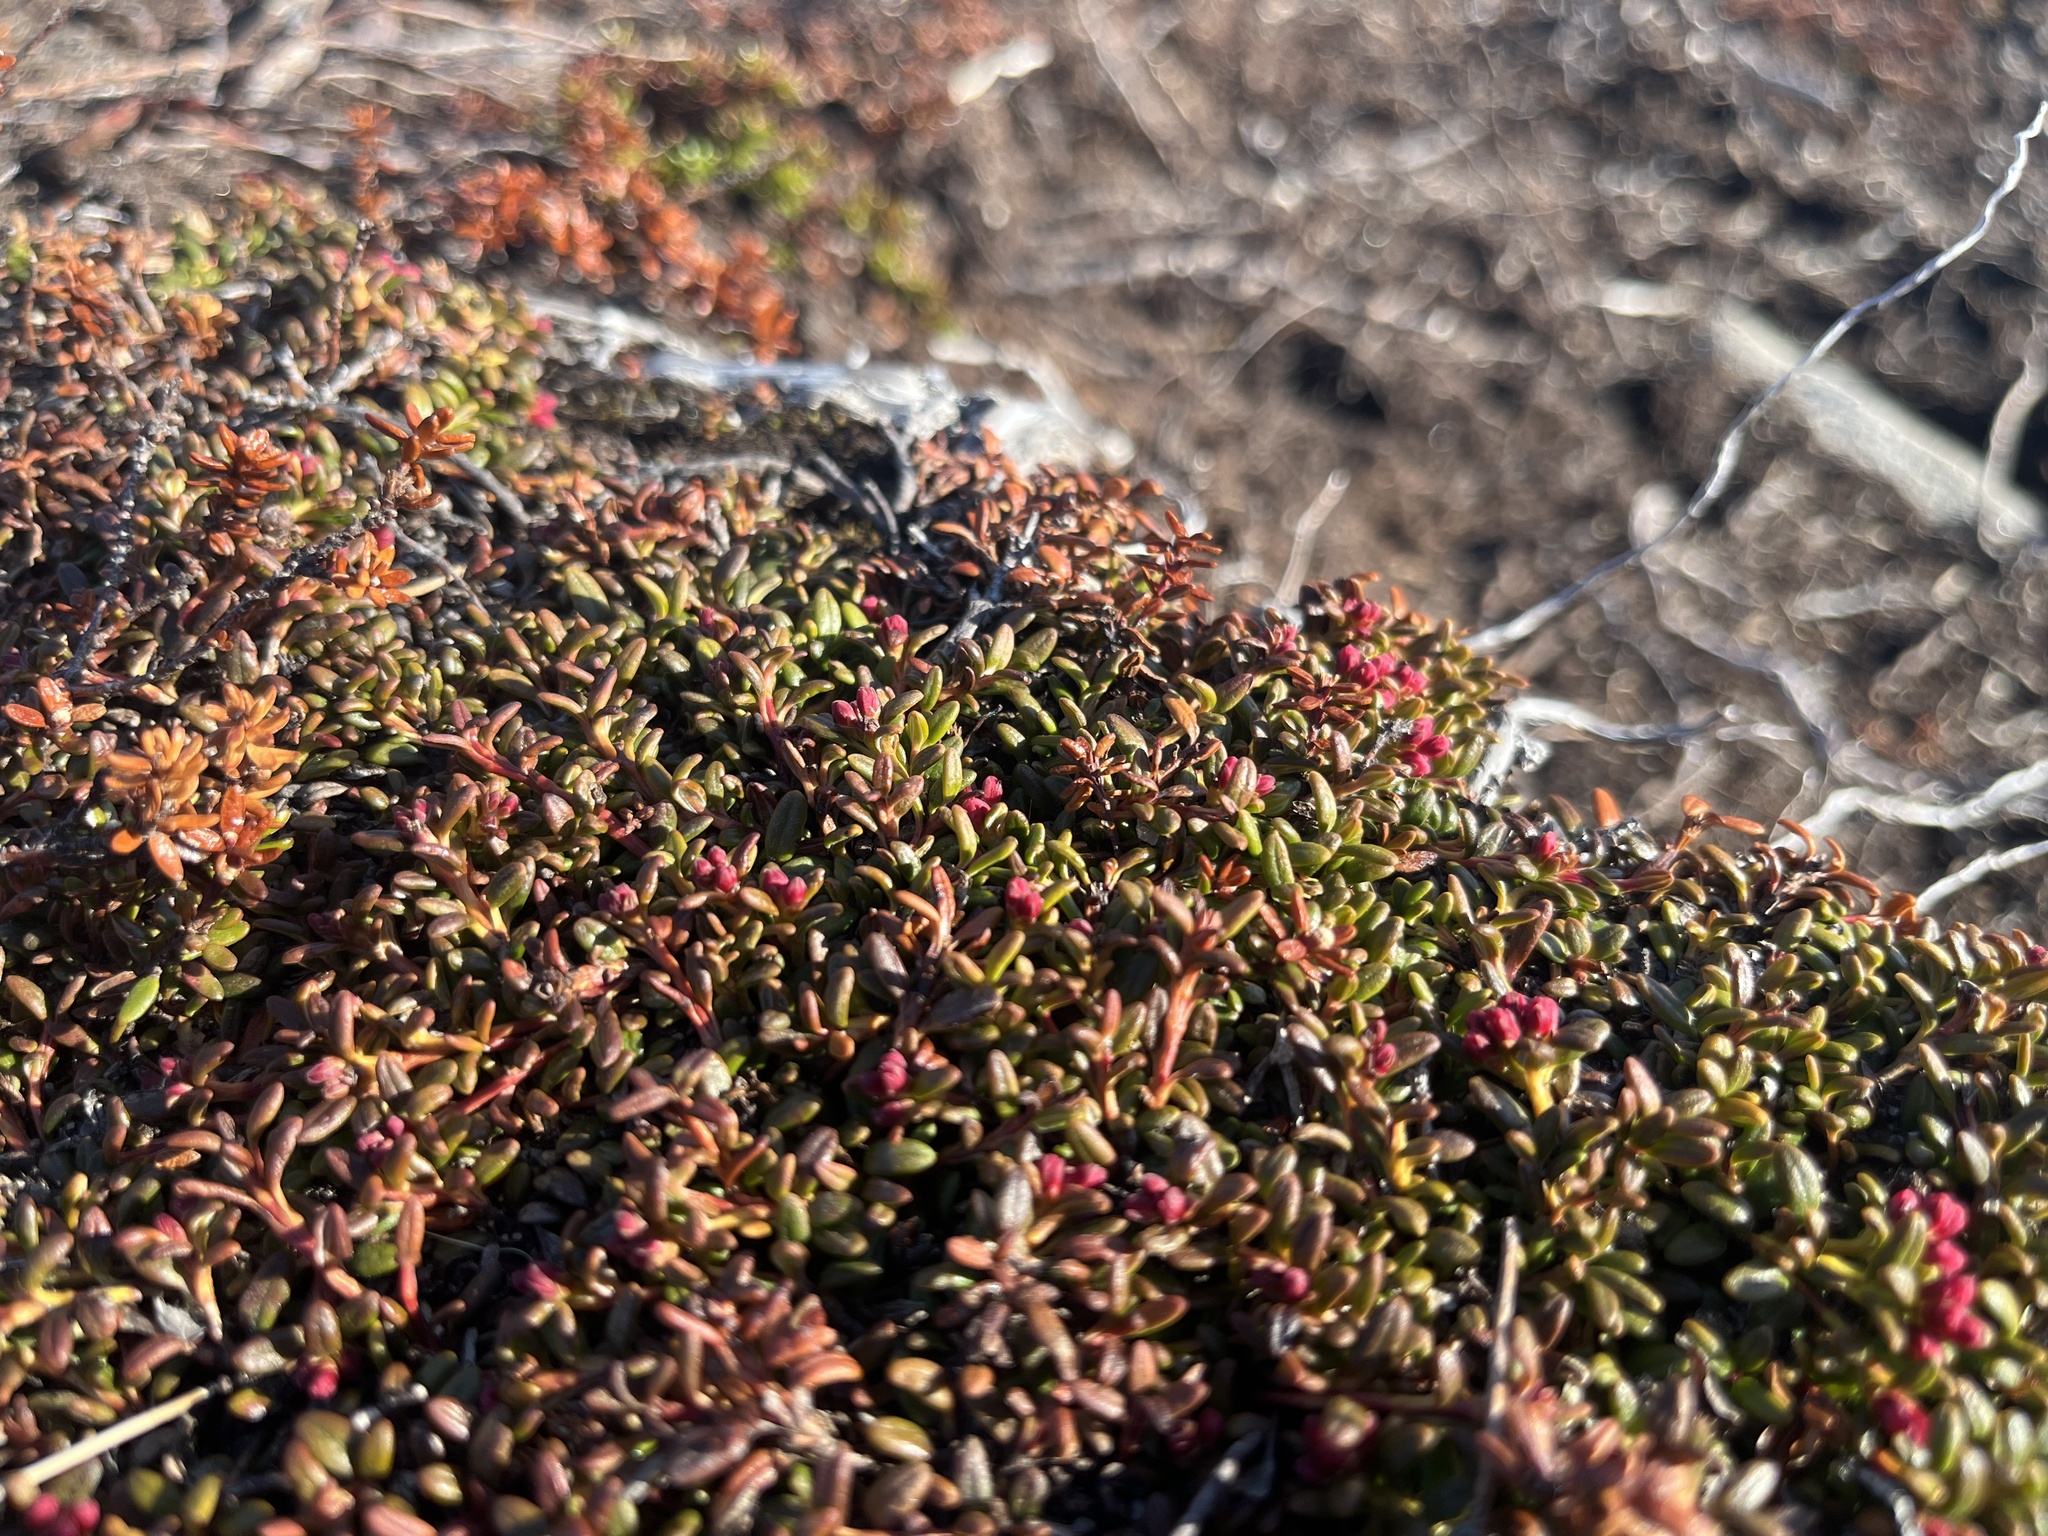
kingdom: Plantae
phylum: Tracheophyta
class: Magnoliopsida
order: Ericales
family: Ericaceae
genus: Kalmia
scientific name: Kalmia procumbens
